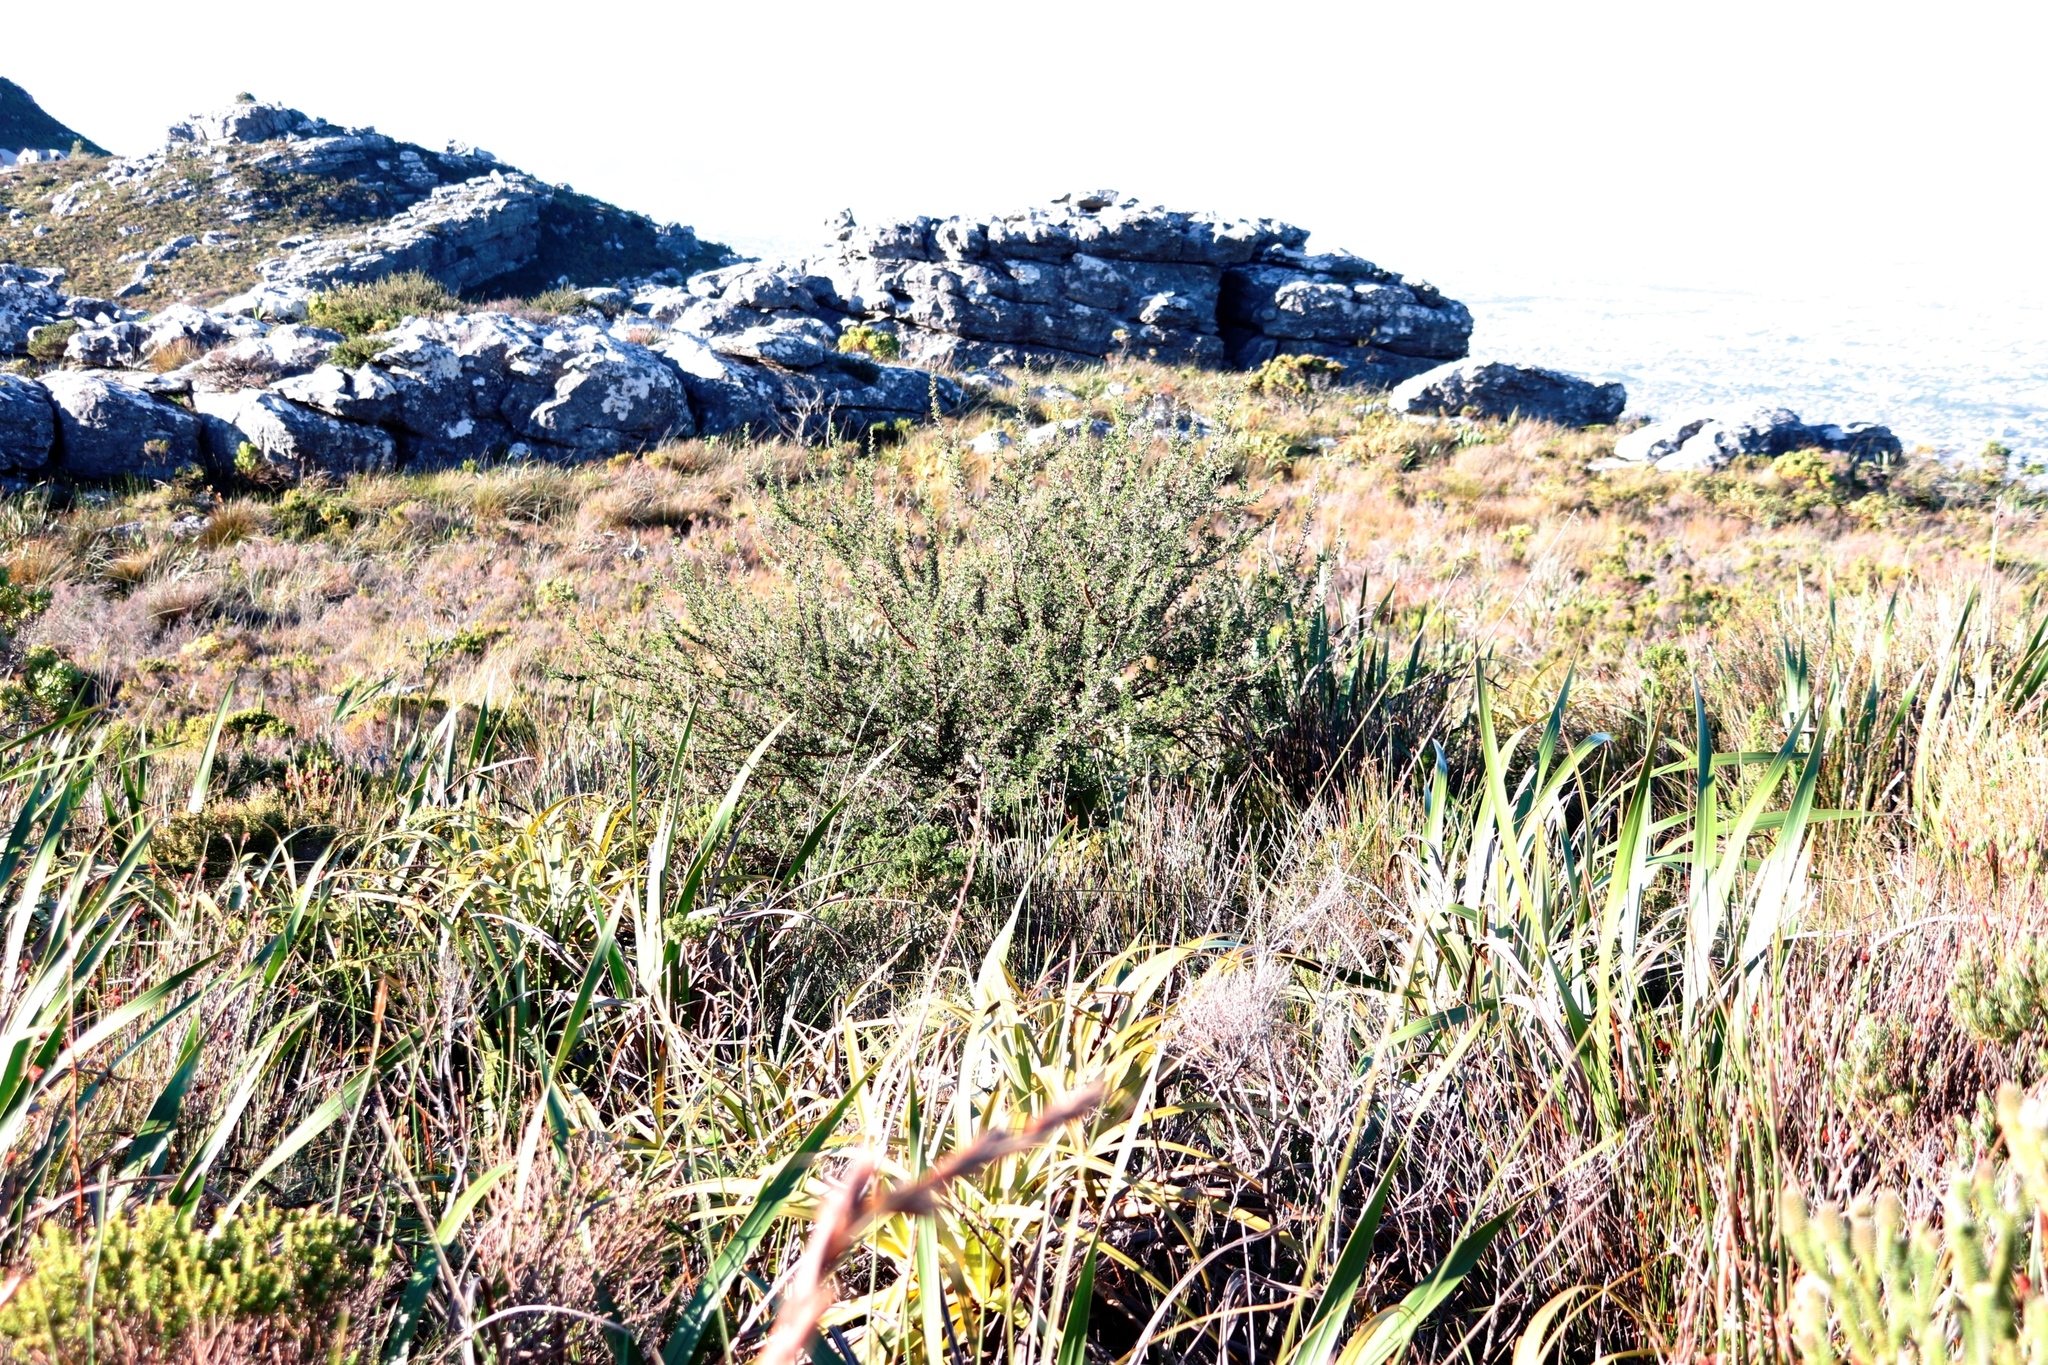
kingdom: Plantae
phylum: Tracheophyta
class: Magnoliopsida
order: Rosales
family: Rosaceae
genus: Cliffortia
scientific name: Cliffortia ruscifolia
